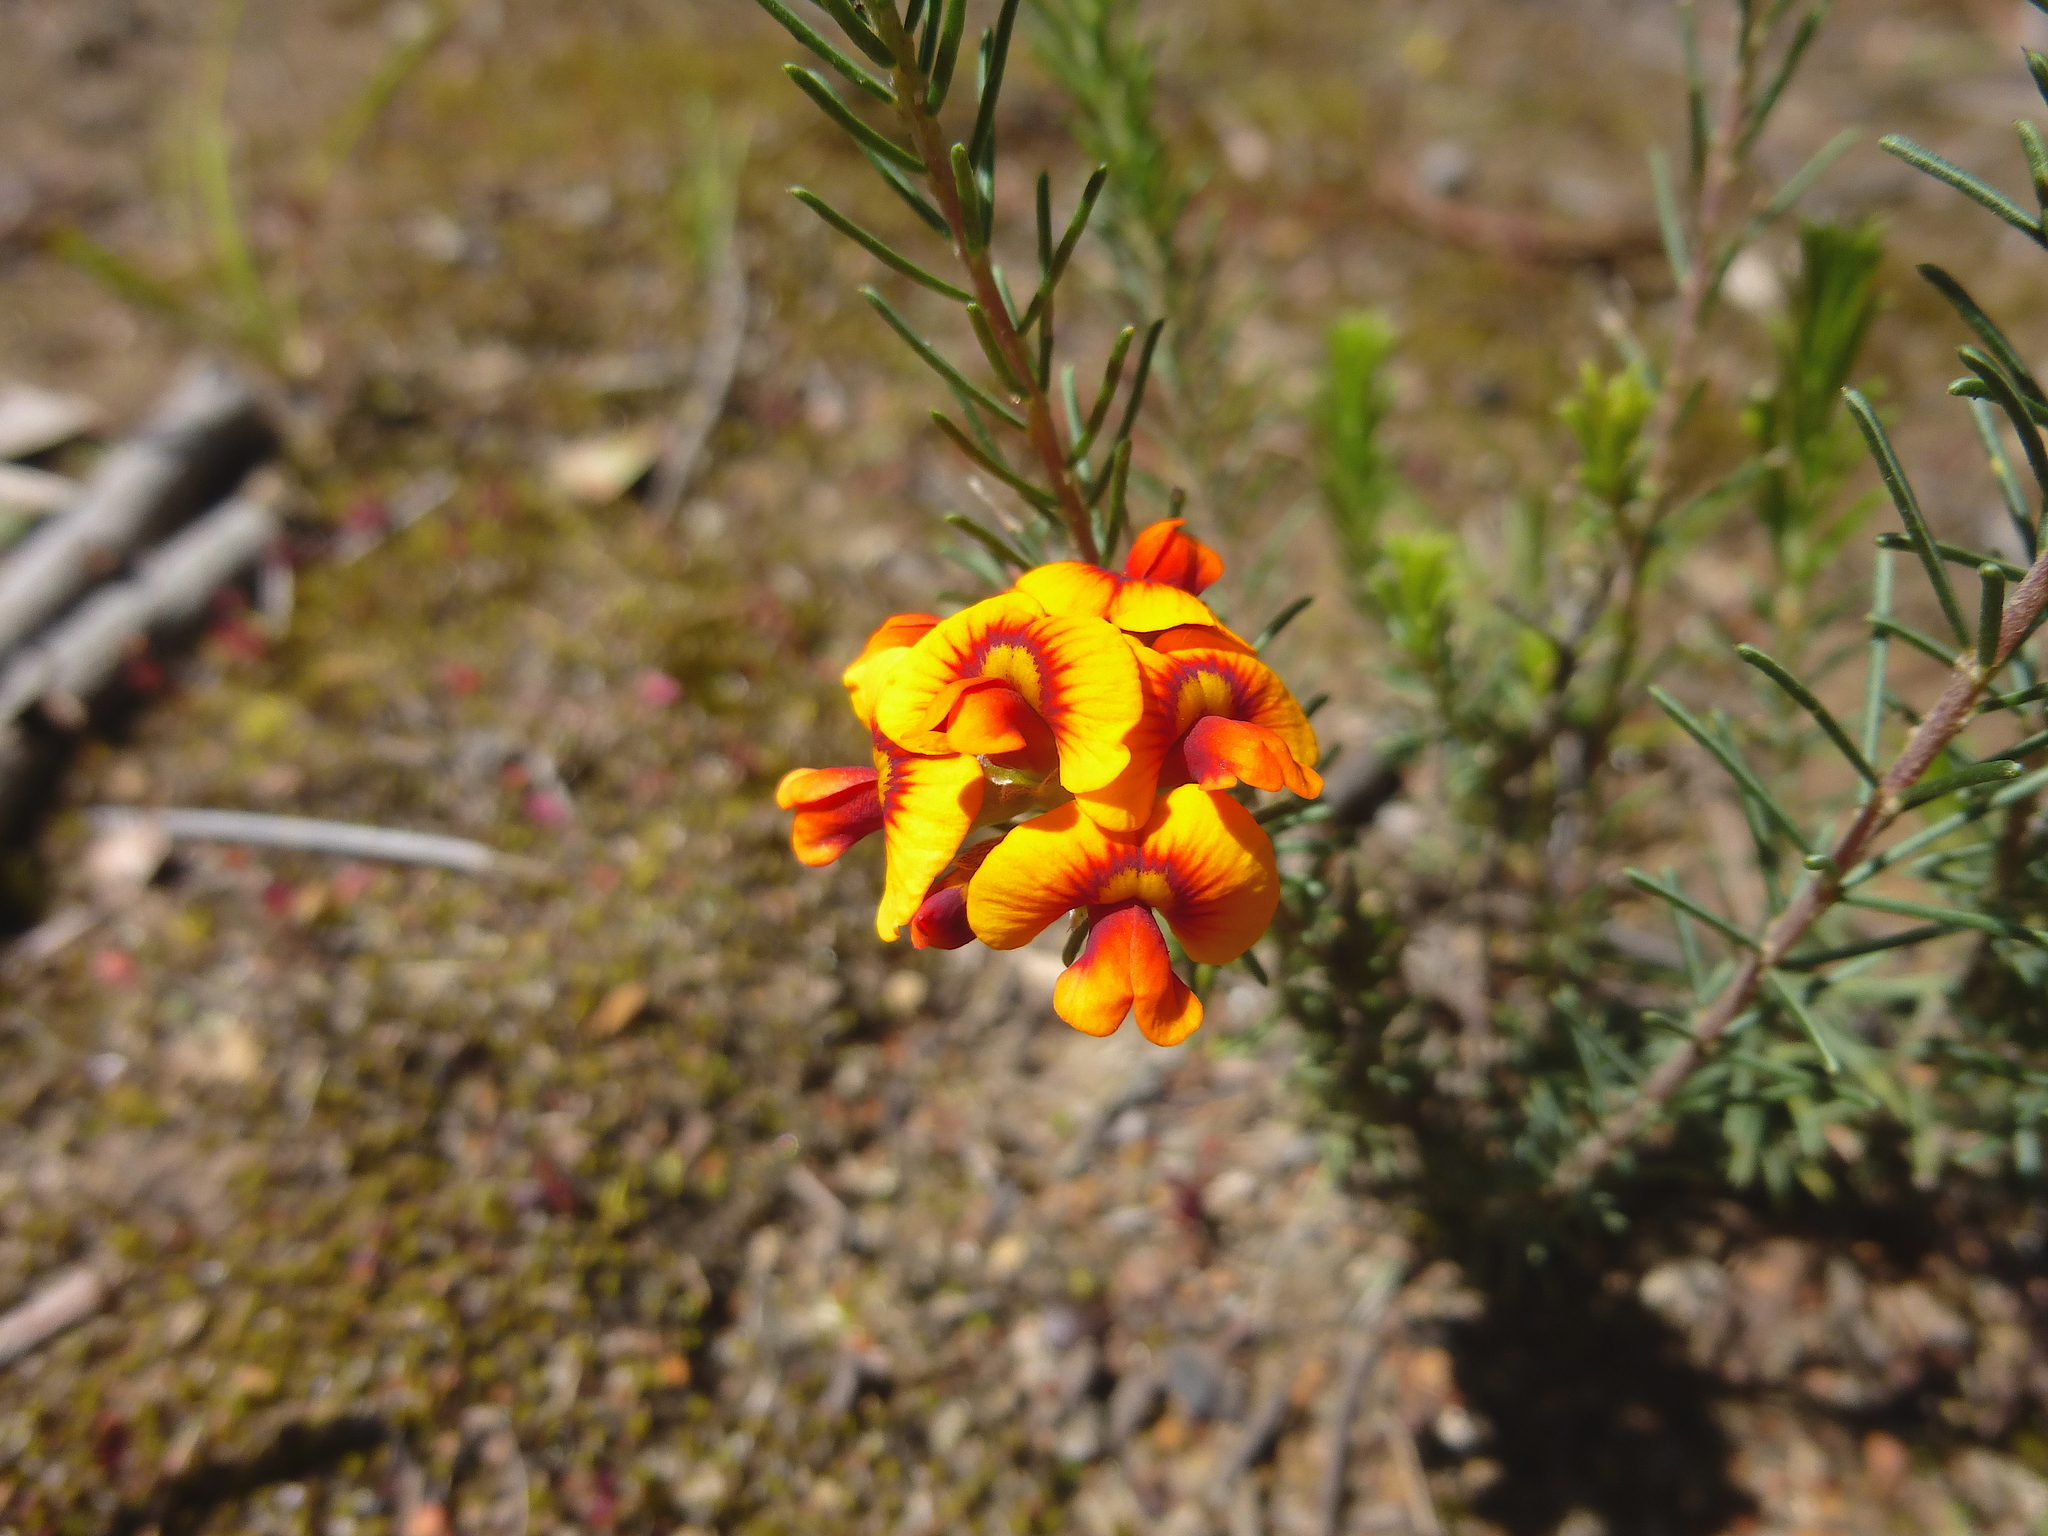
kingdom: Plantae
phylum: Tracheophyta
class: Magnoliopsida
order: Fabales
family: Fabaceae
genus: Dillwynia
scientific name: Dillwynia cinerascens
